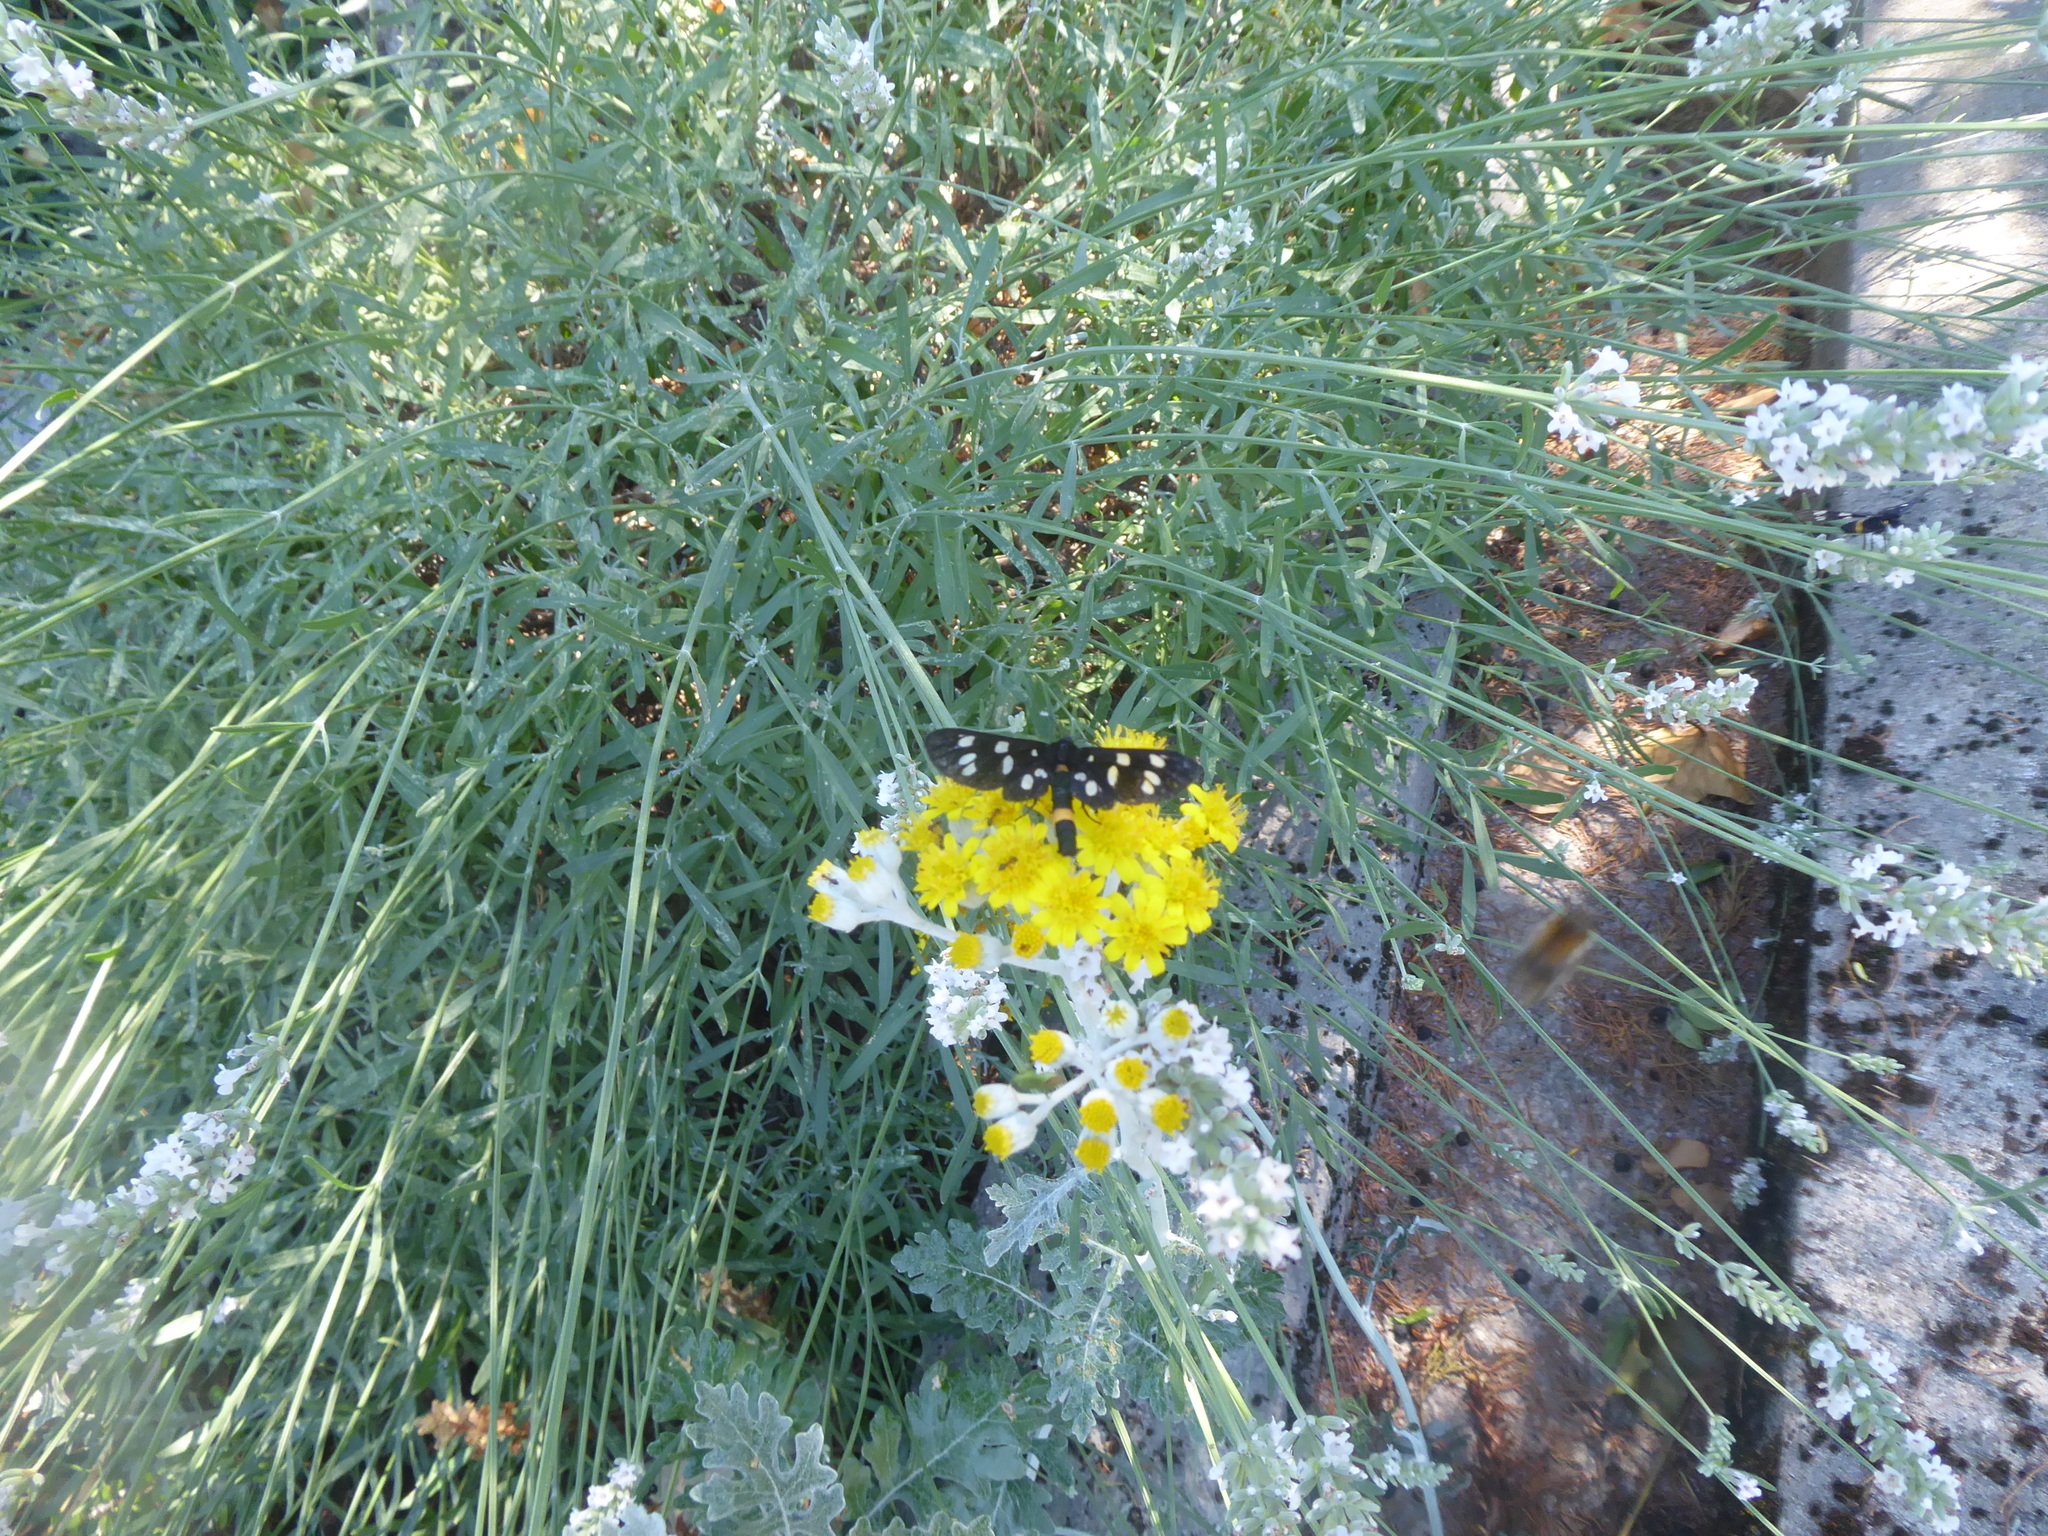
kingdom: Animalia
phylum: Arthropoda
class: Insecta
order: Lepidoptera
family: Erebidae
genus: Amata
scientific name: Amata phegea
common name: Nine-spotted
